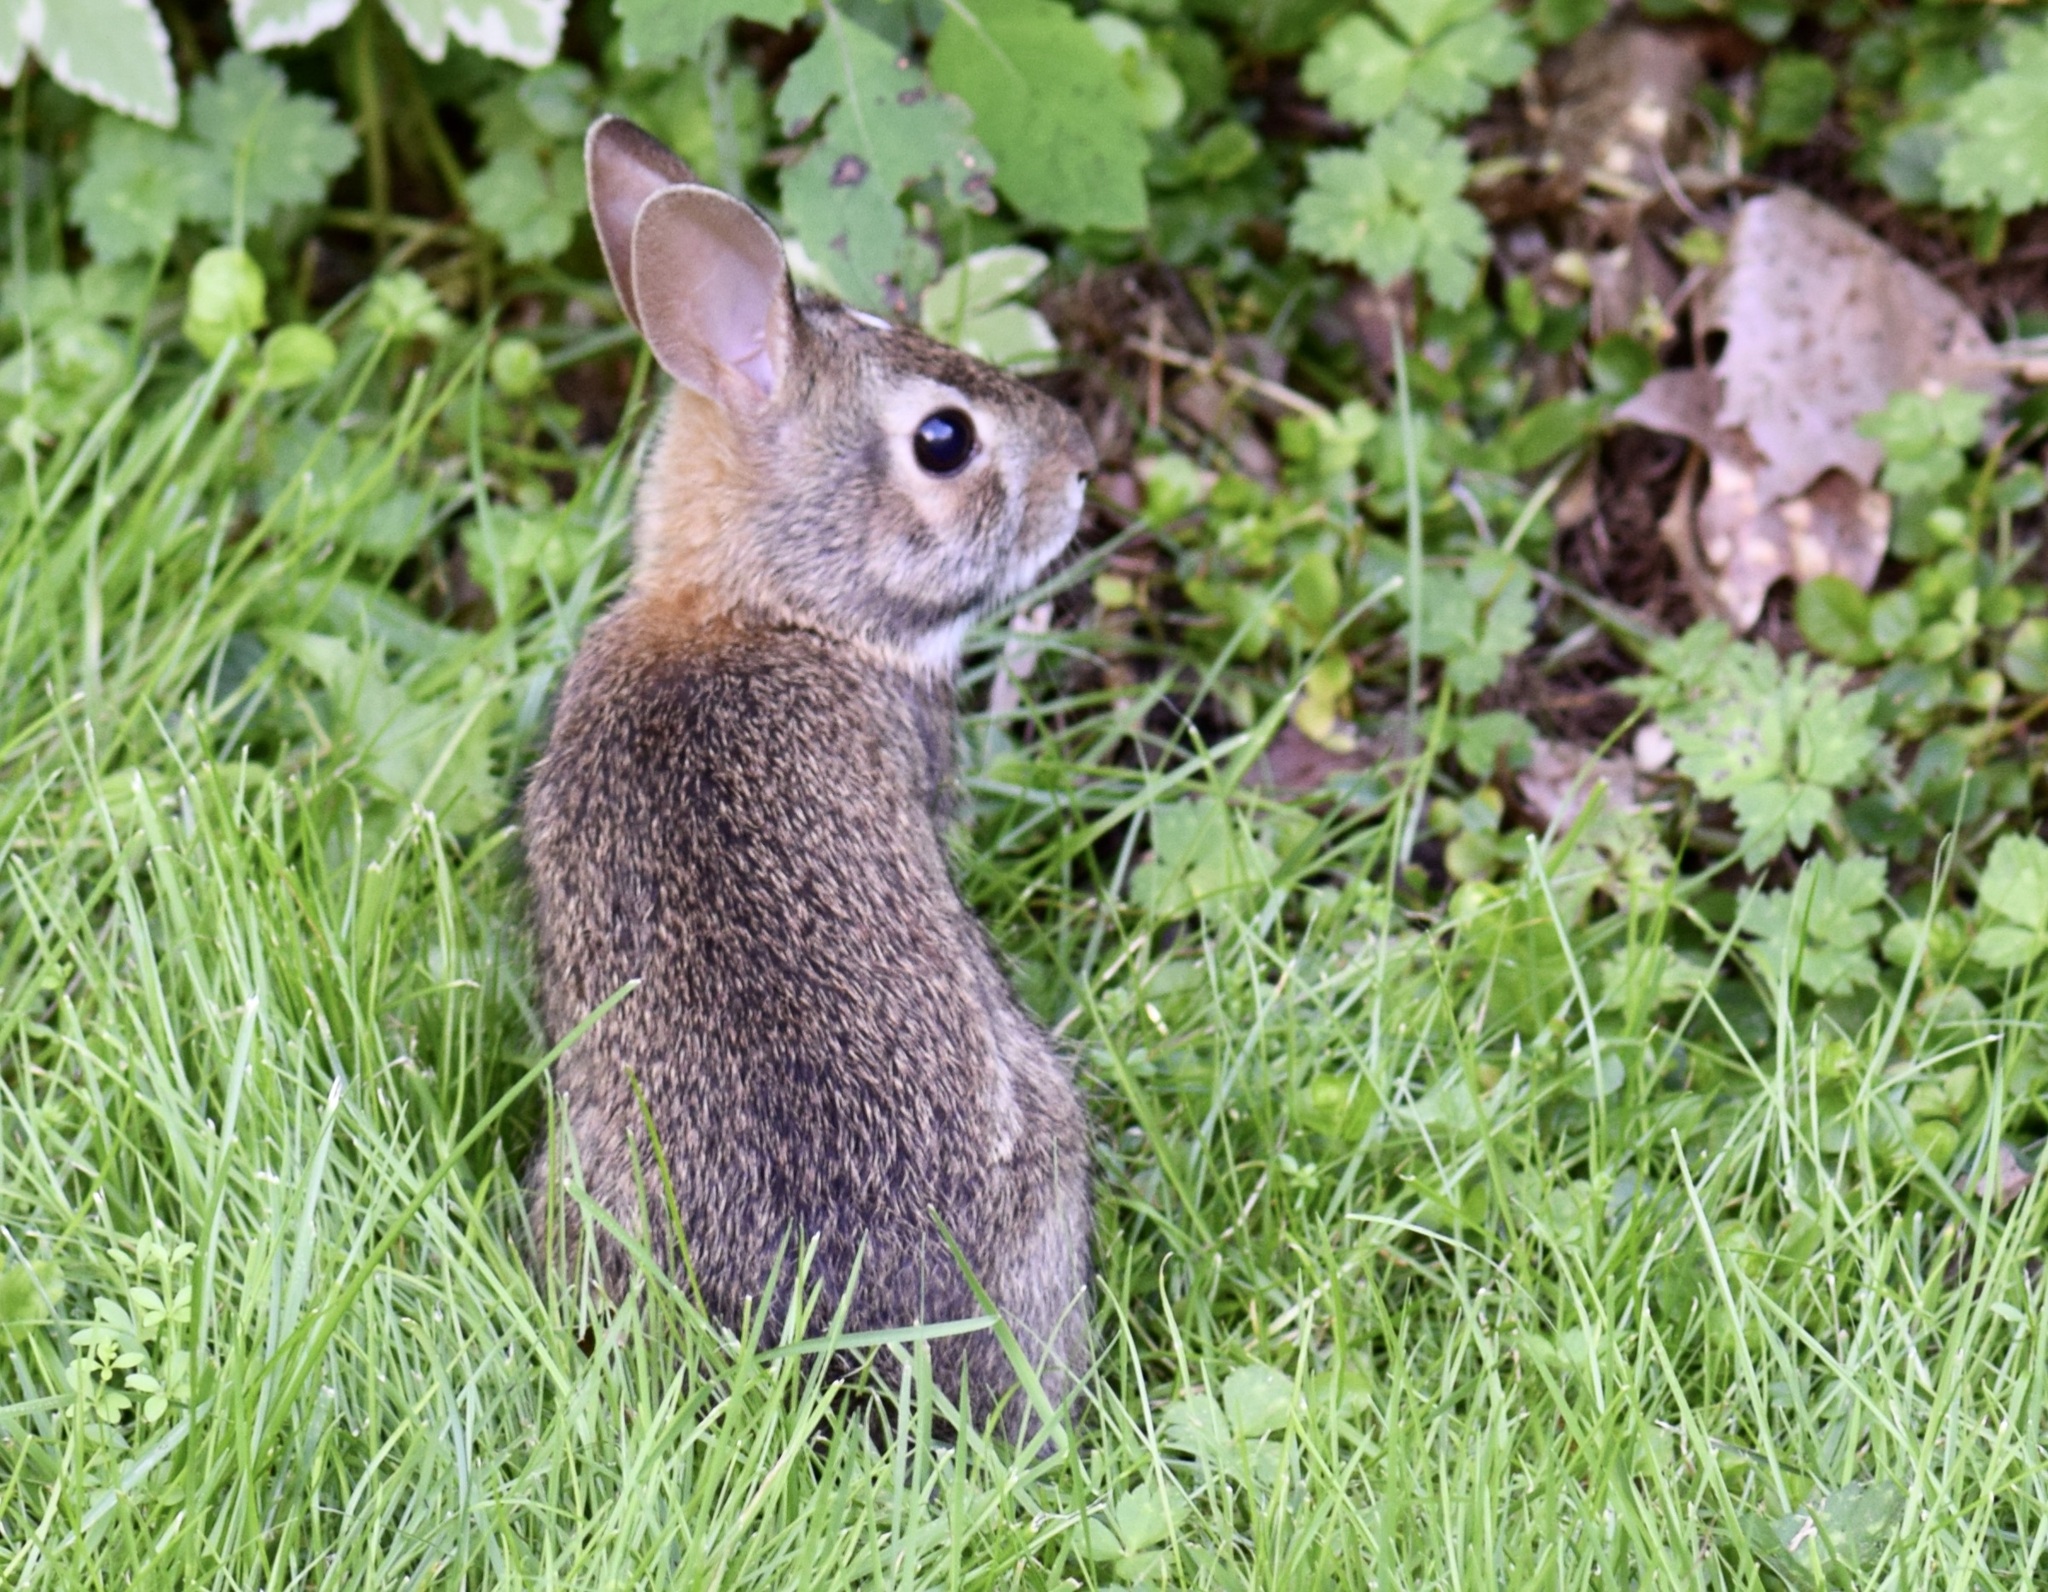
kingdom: Animalia
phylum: Chordata
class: Mammalia
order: Lagomorpha
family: Leporidae
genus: Sylvilagus
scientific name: Sylvilagus floridanus
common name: Eastern cottontail
